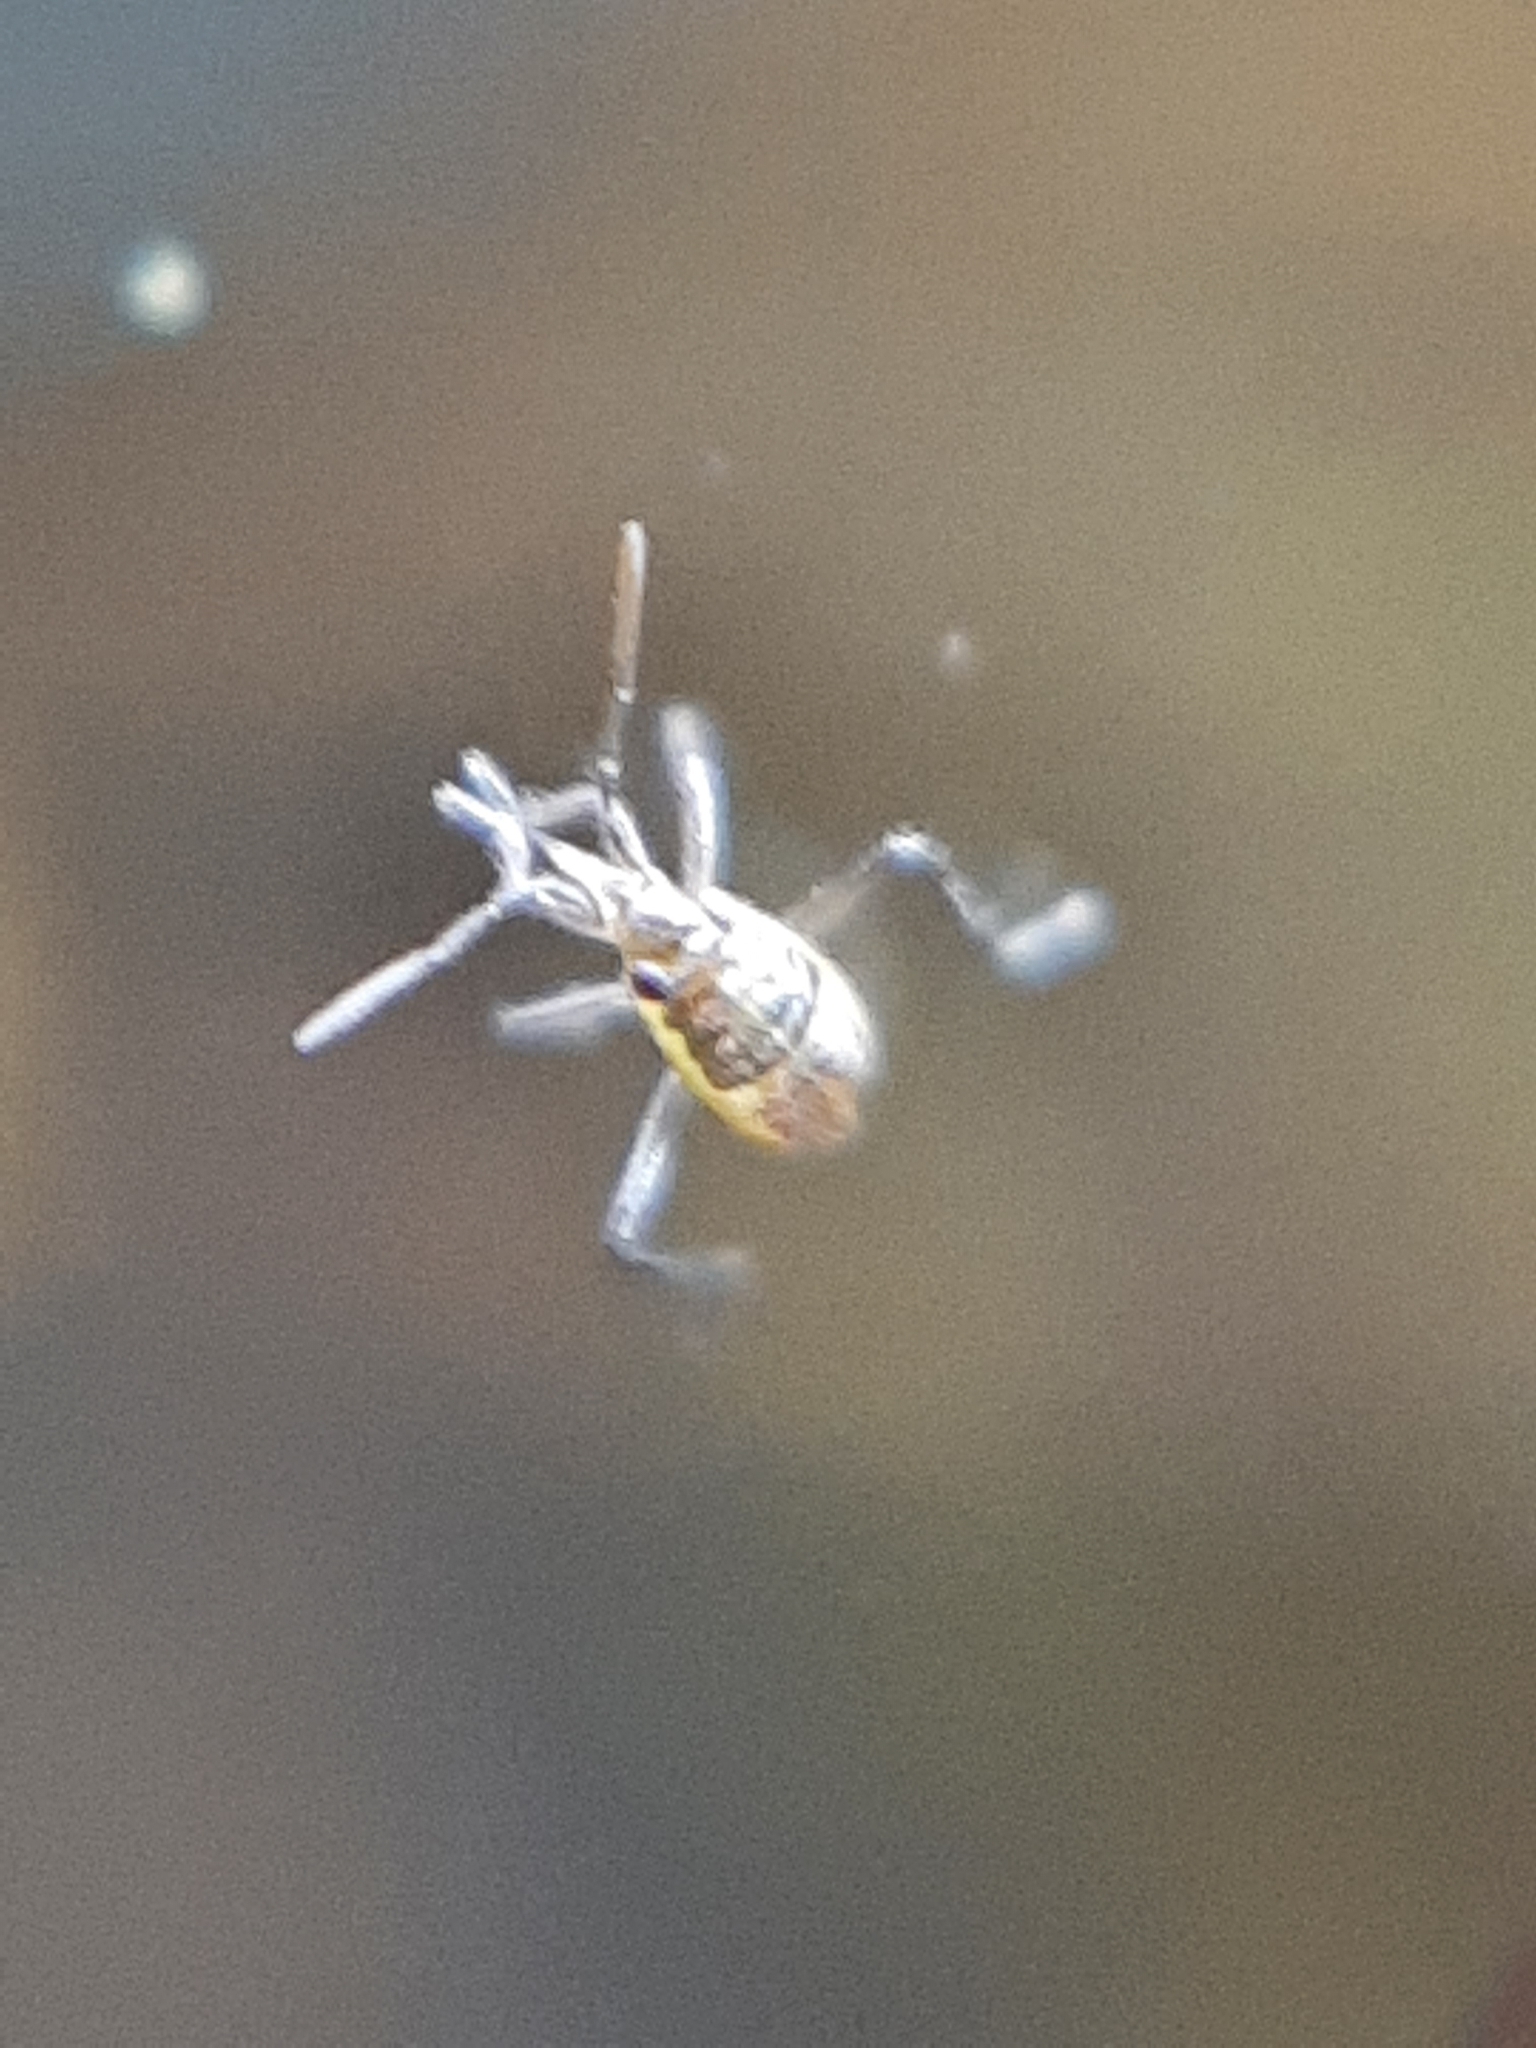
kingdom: Animalia
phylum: Arthropoda
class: Insecta
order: Hemiptera
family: Mesoveliidae
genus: Mesovelia
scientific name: Mesovelia
